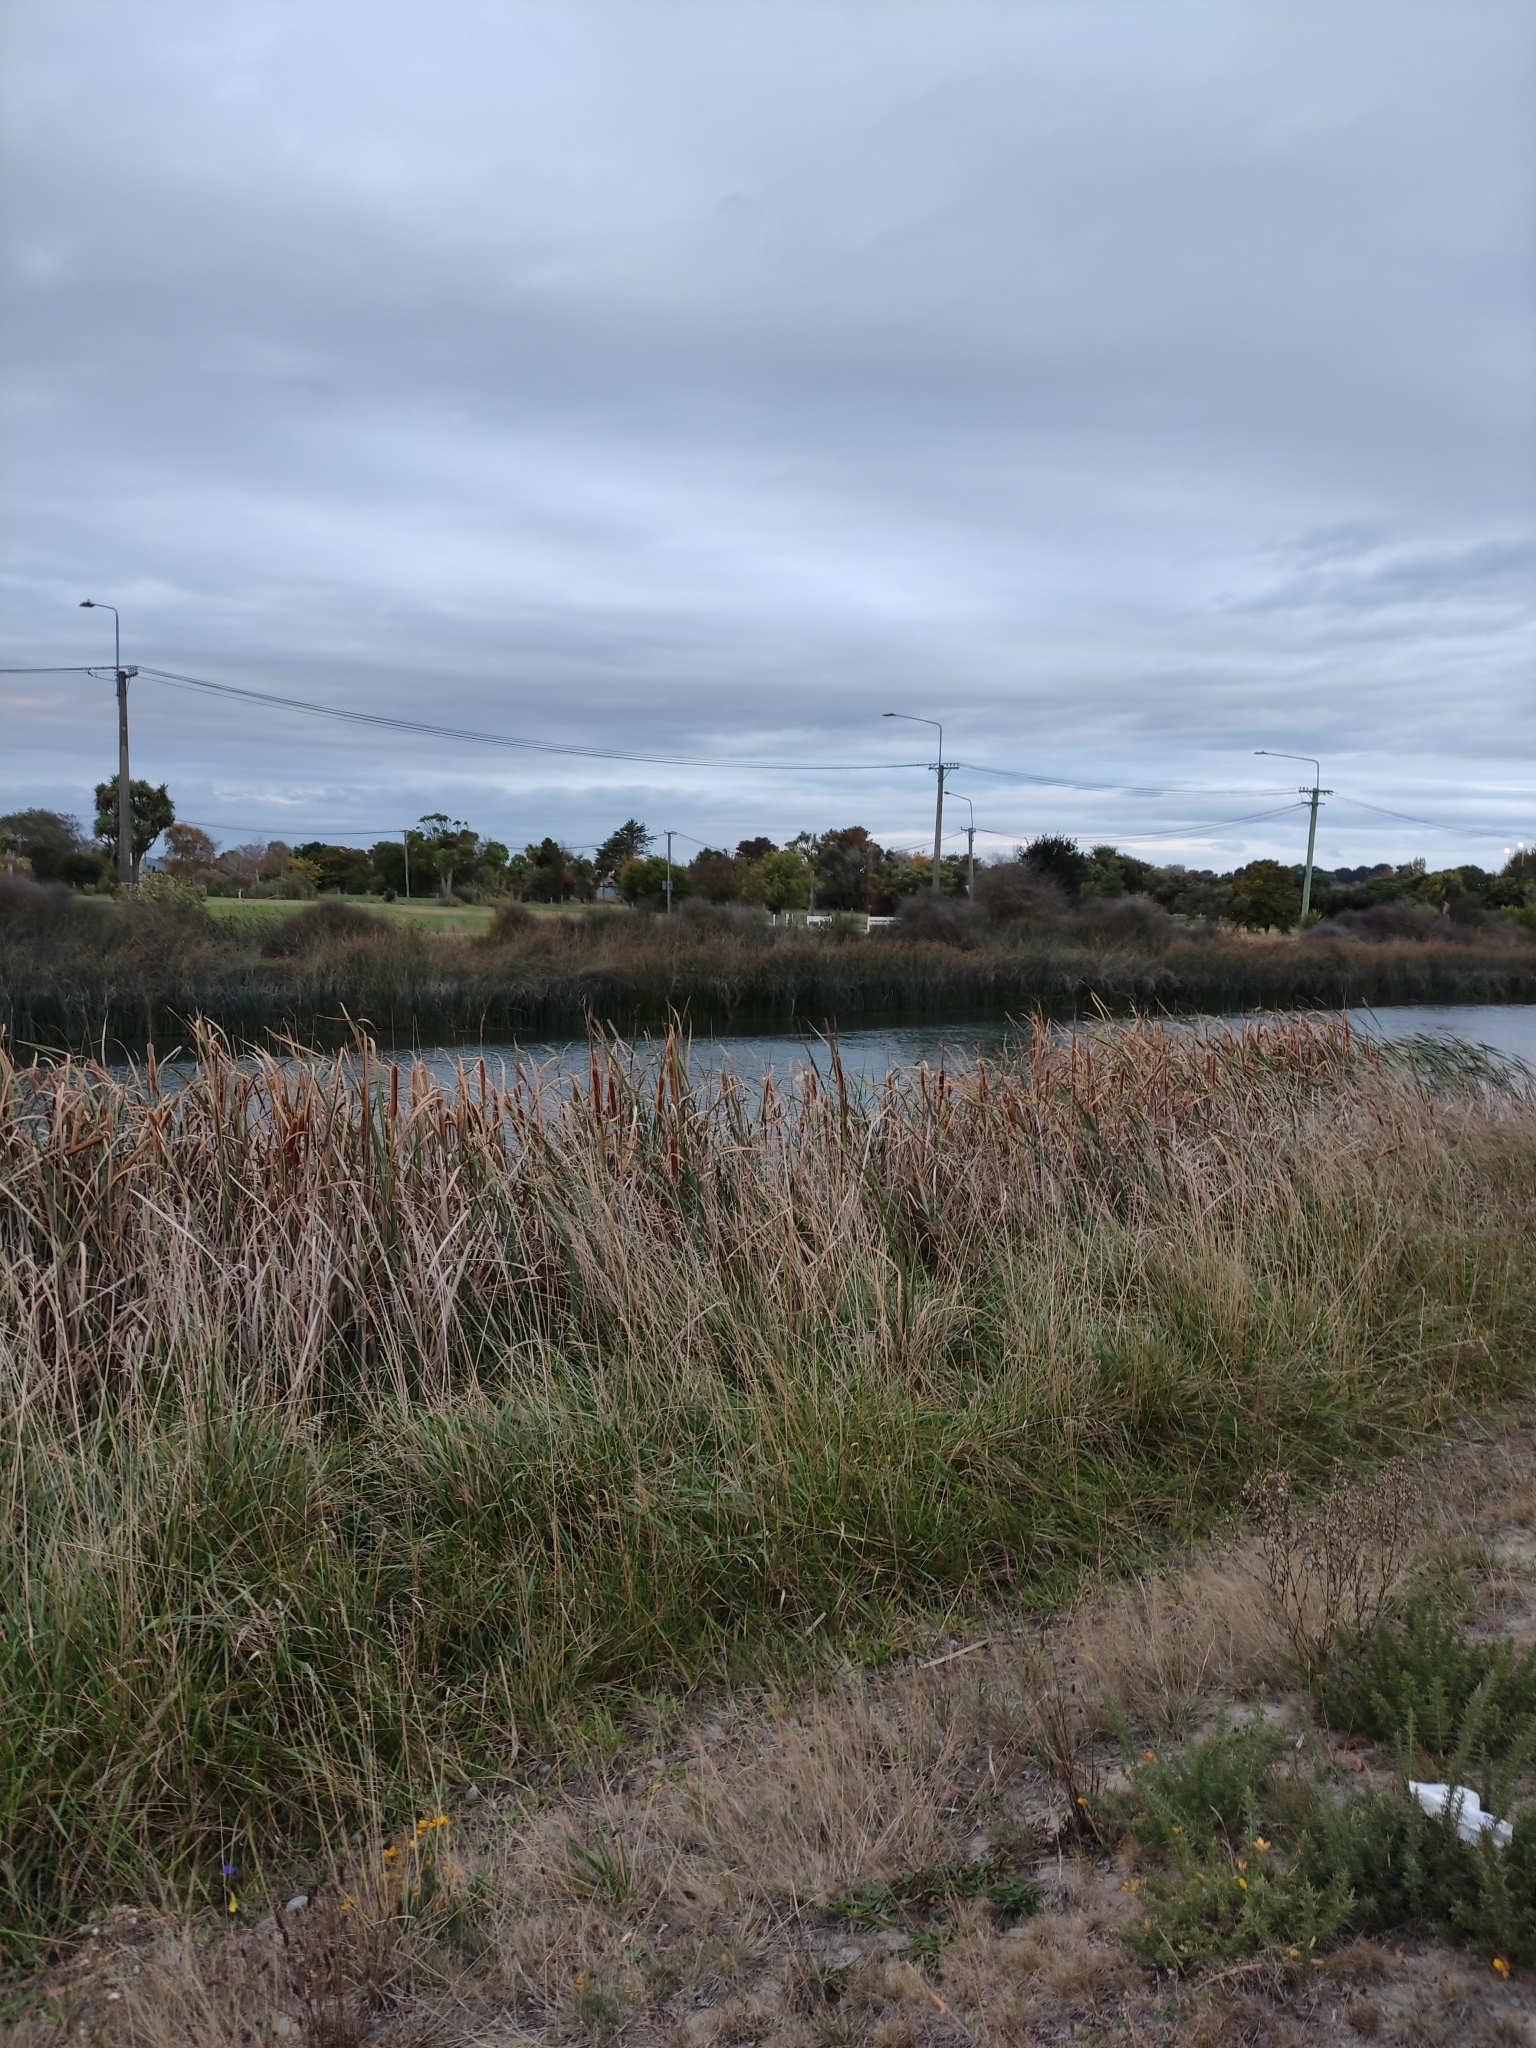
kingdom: Plantae
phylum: Tracheophyta
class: Liliopsida
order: Poales
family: Typhaceae
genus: Typha
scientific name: Typha orientalis
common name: Bullrush
